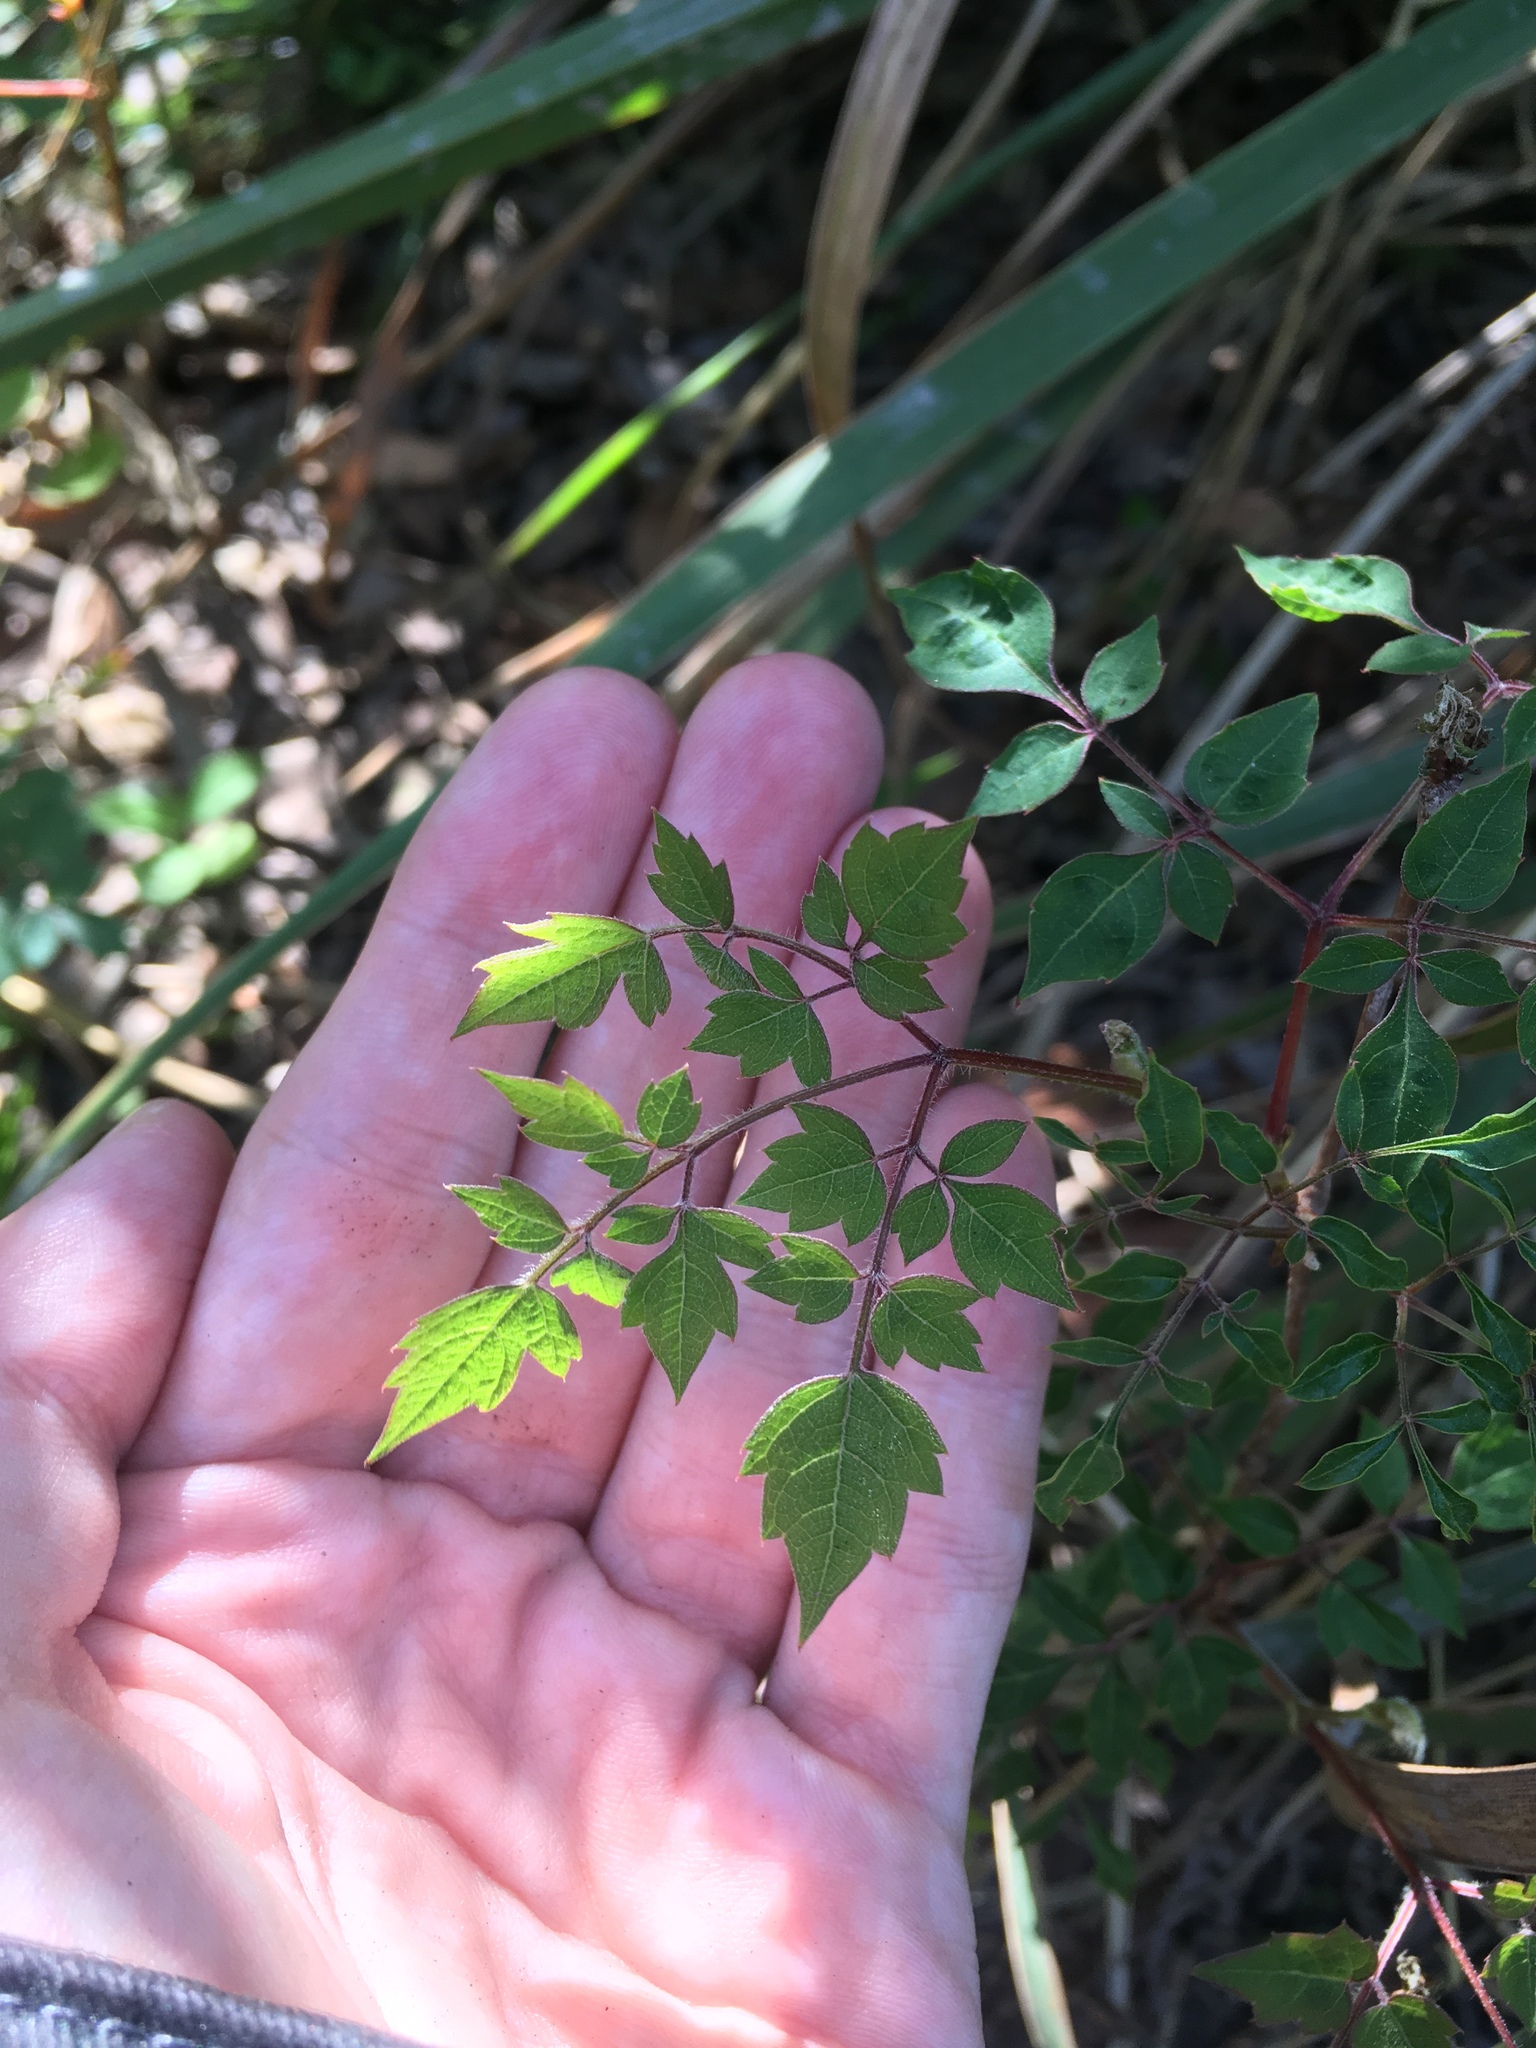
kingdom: Plantae
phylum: Tracheophyta
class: Magnoliopsida
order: Vitales
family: Vitaceae
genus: Nekemias
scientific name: Nekemias arborea
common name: Peppervine
